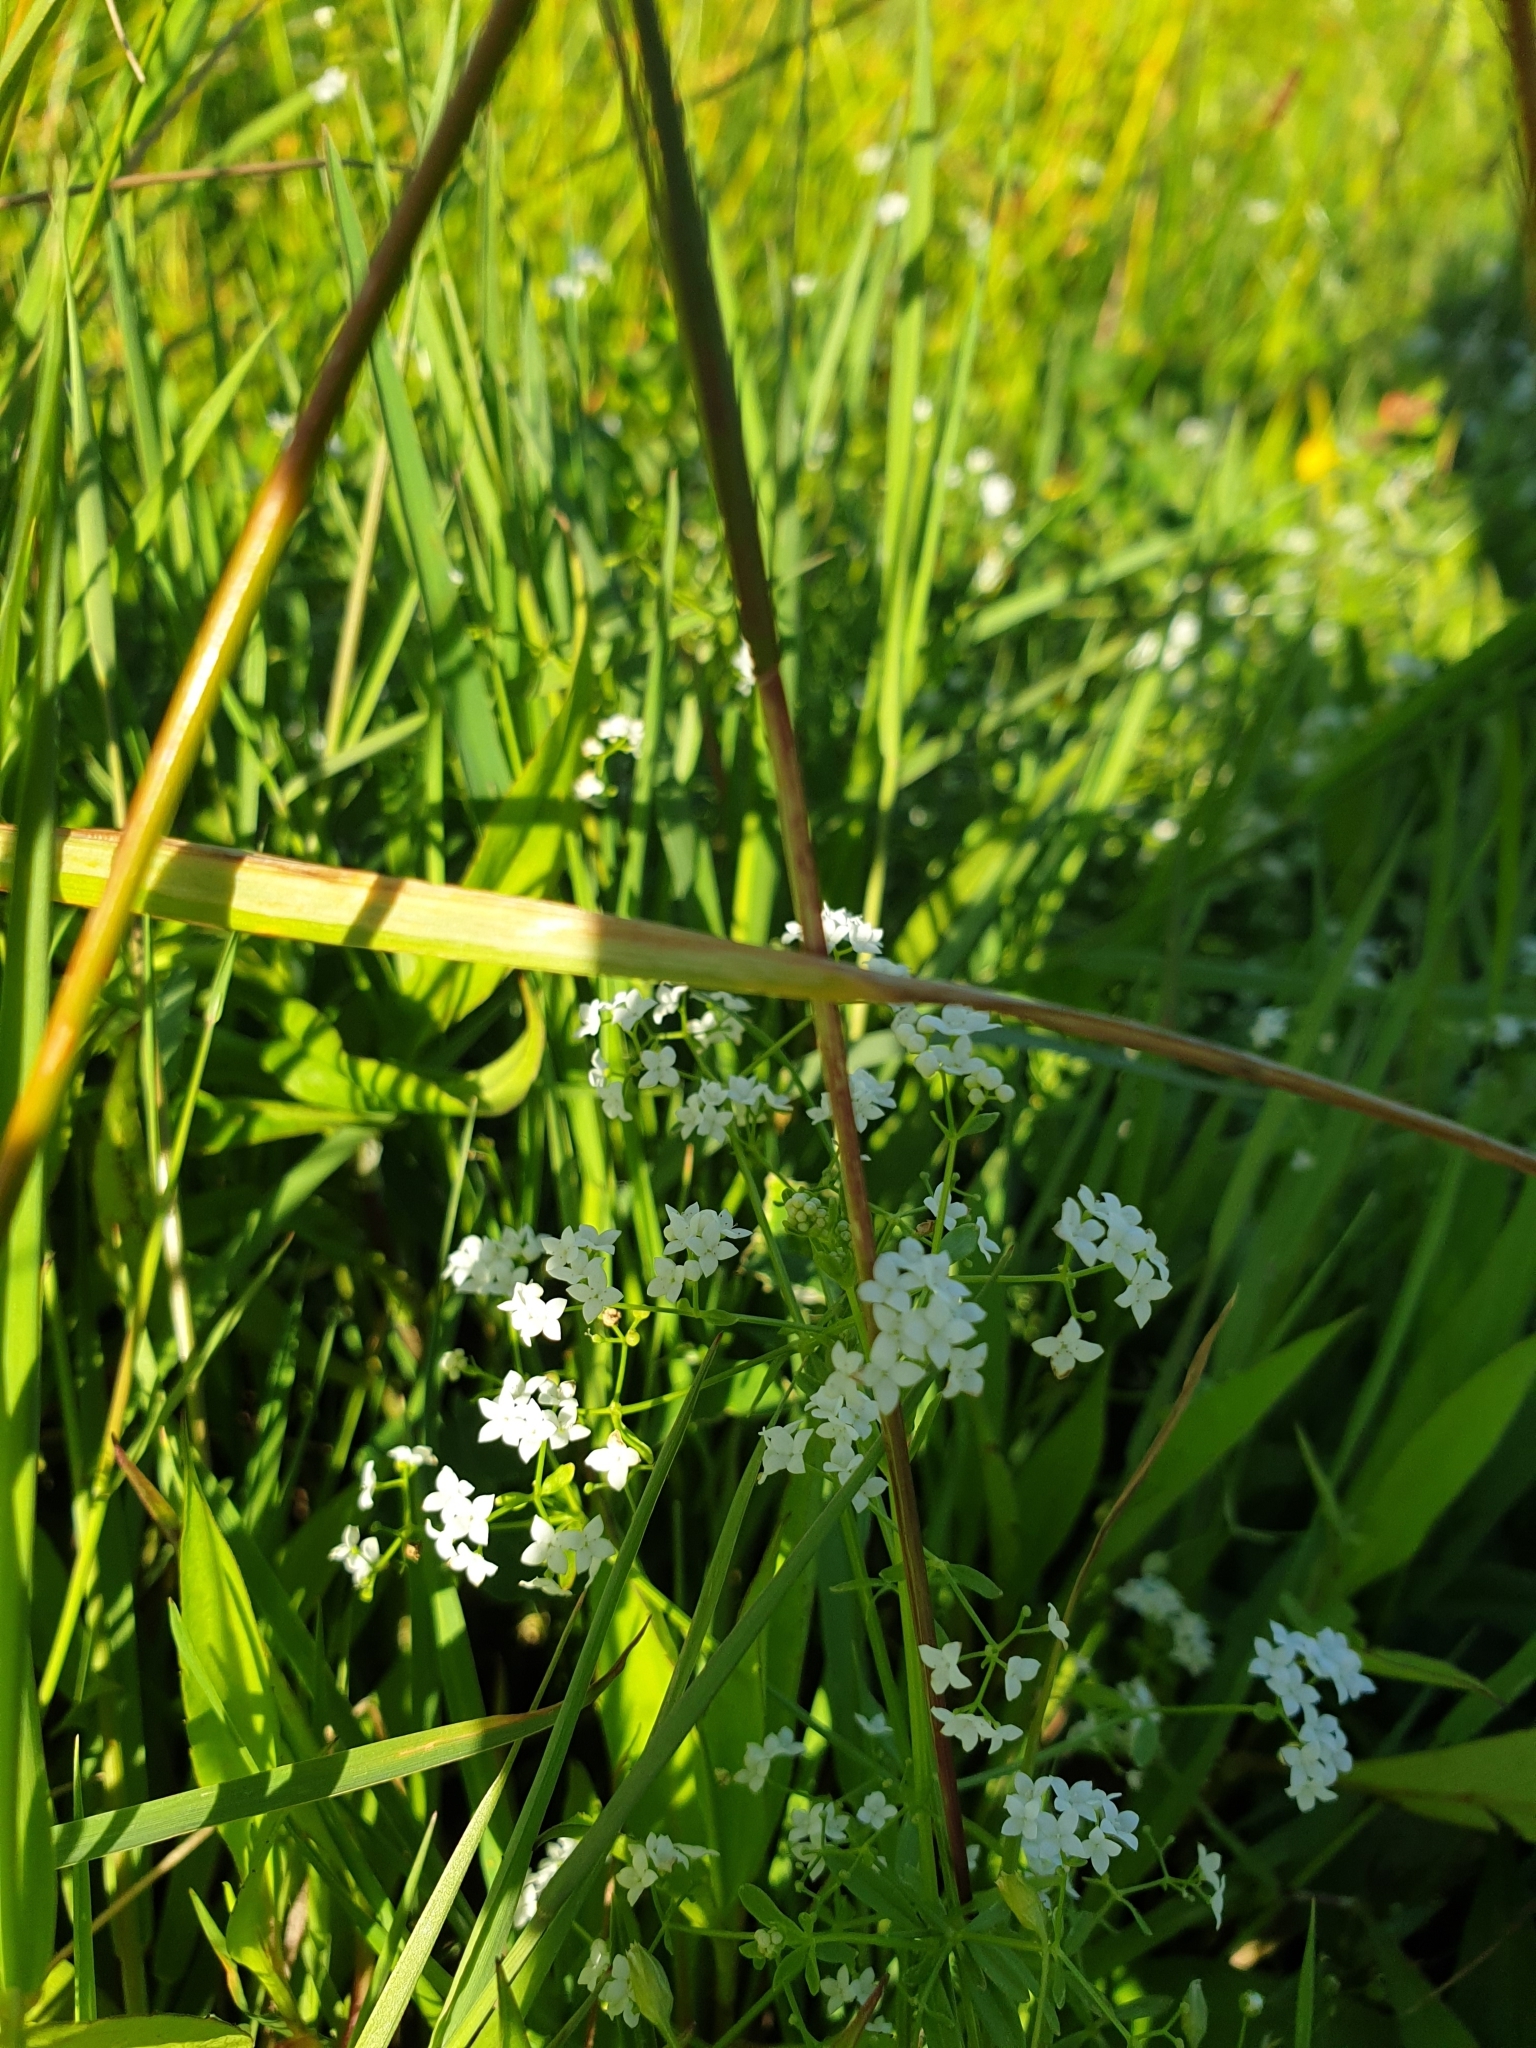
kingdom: Plantae
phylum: Tracheophyta
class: Magnoliopsida
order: Gentianales
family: Rubiaceae
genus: Galium
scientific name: Galium palustre
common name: Common marsh-bedstraw
